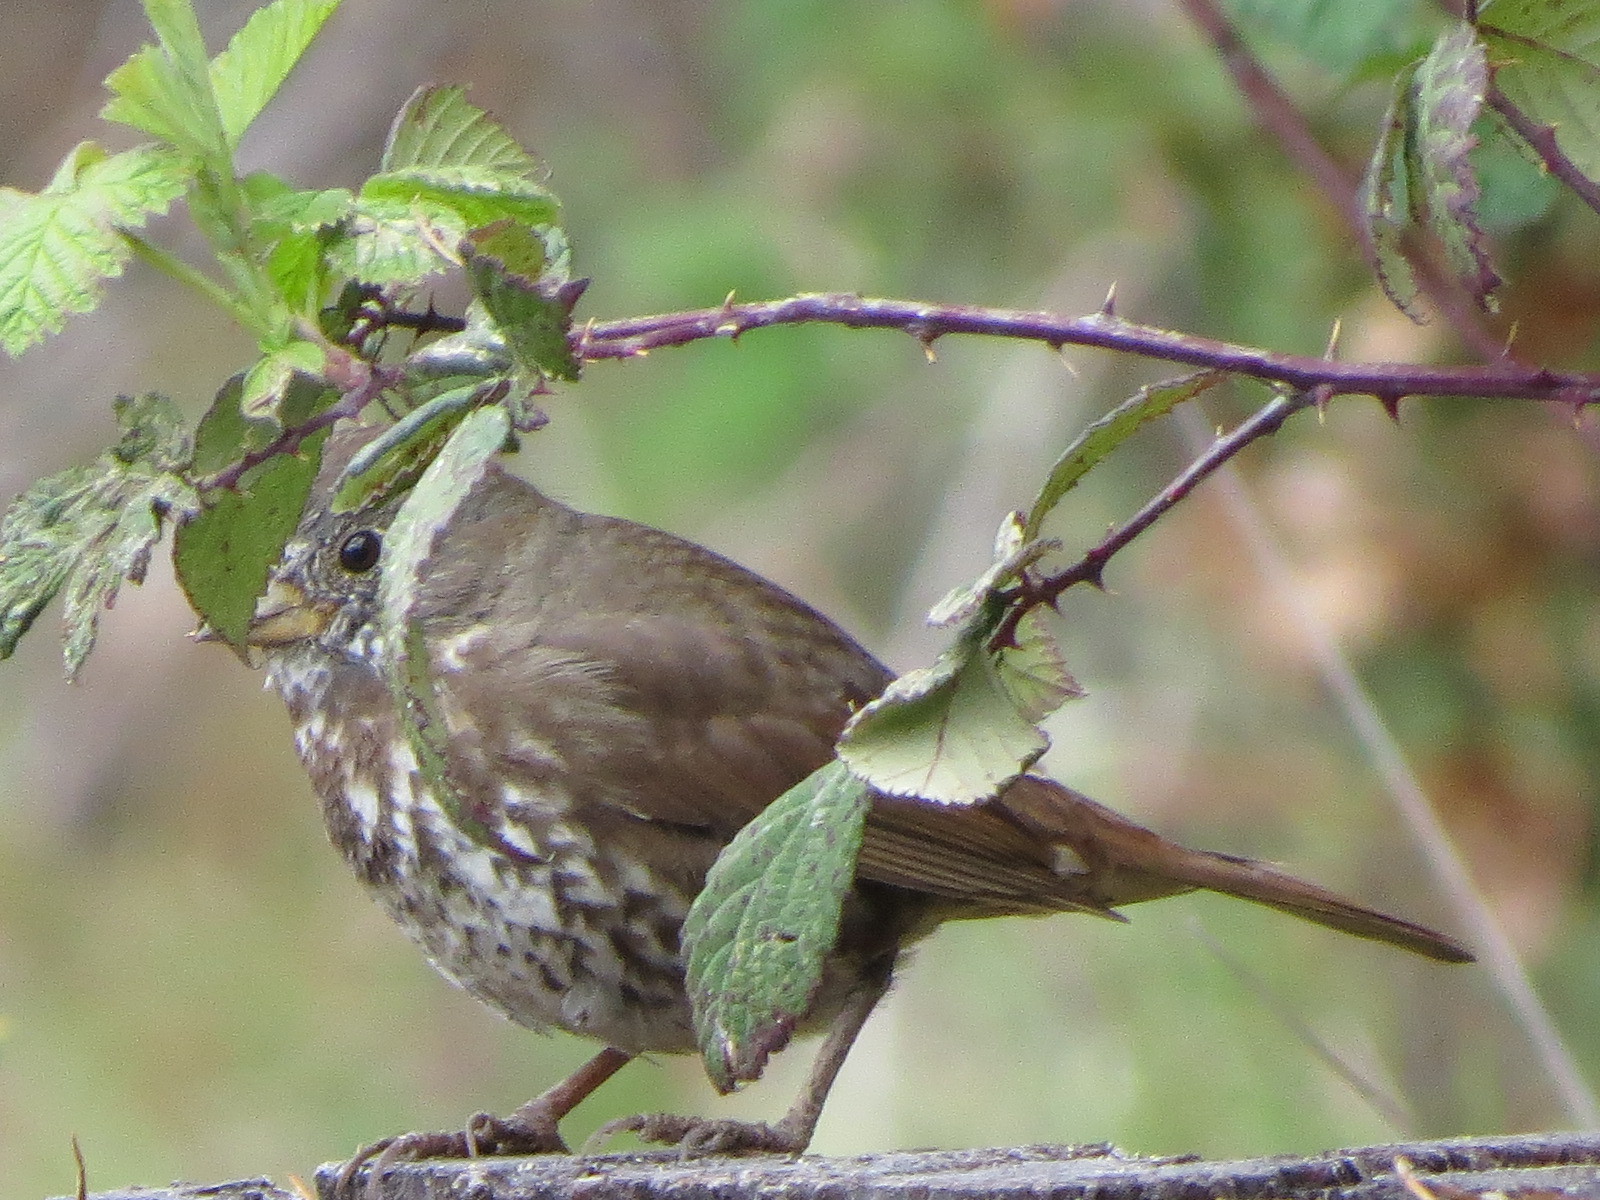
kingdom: Animalia
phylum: Chordata
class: Aves
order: Passeriformes
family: Passerellidae
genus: Passerella
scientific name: Passerella iliaca
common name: Fox sparrow
